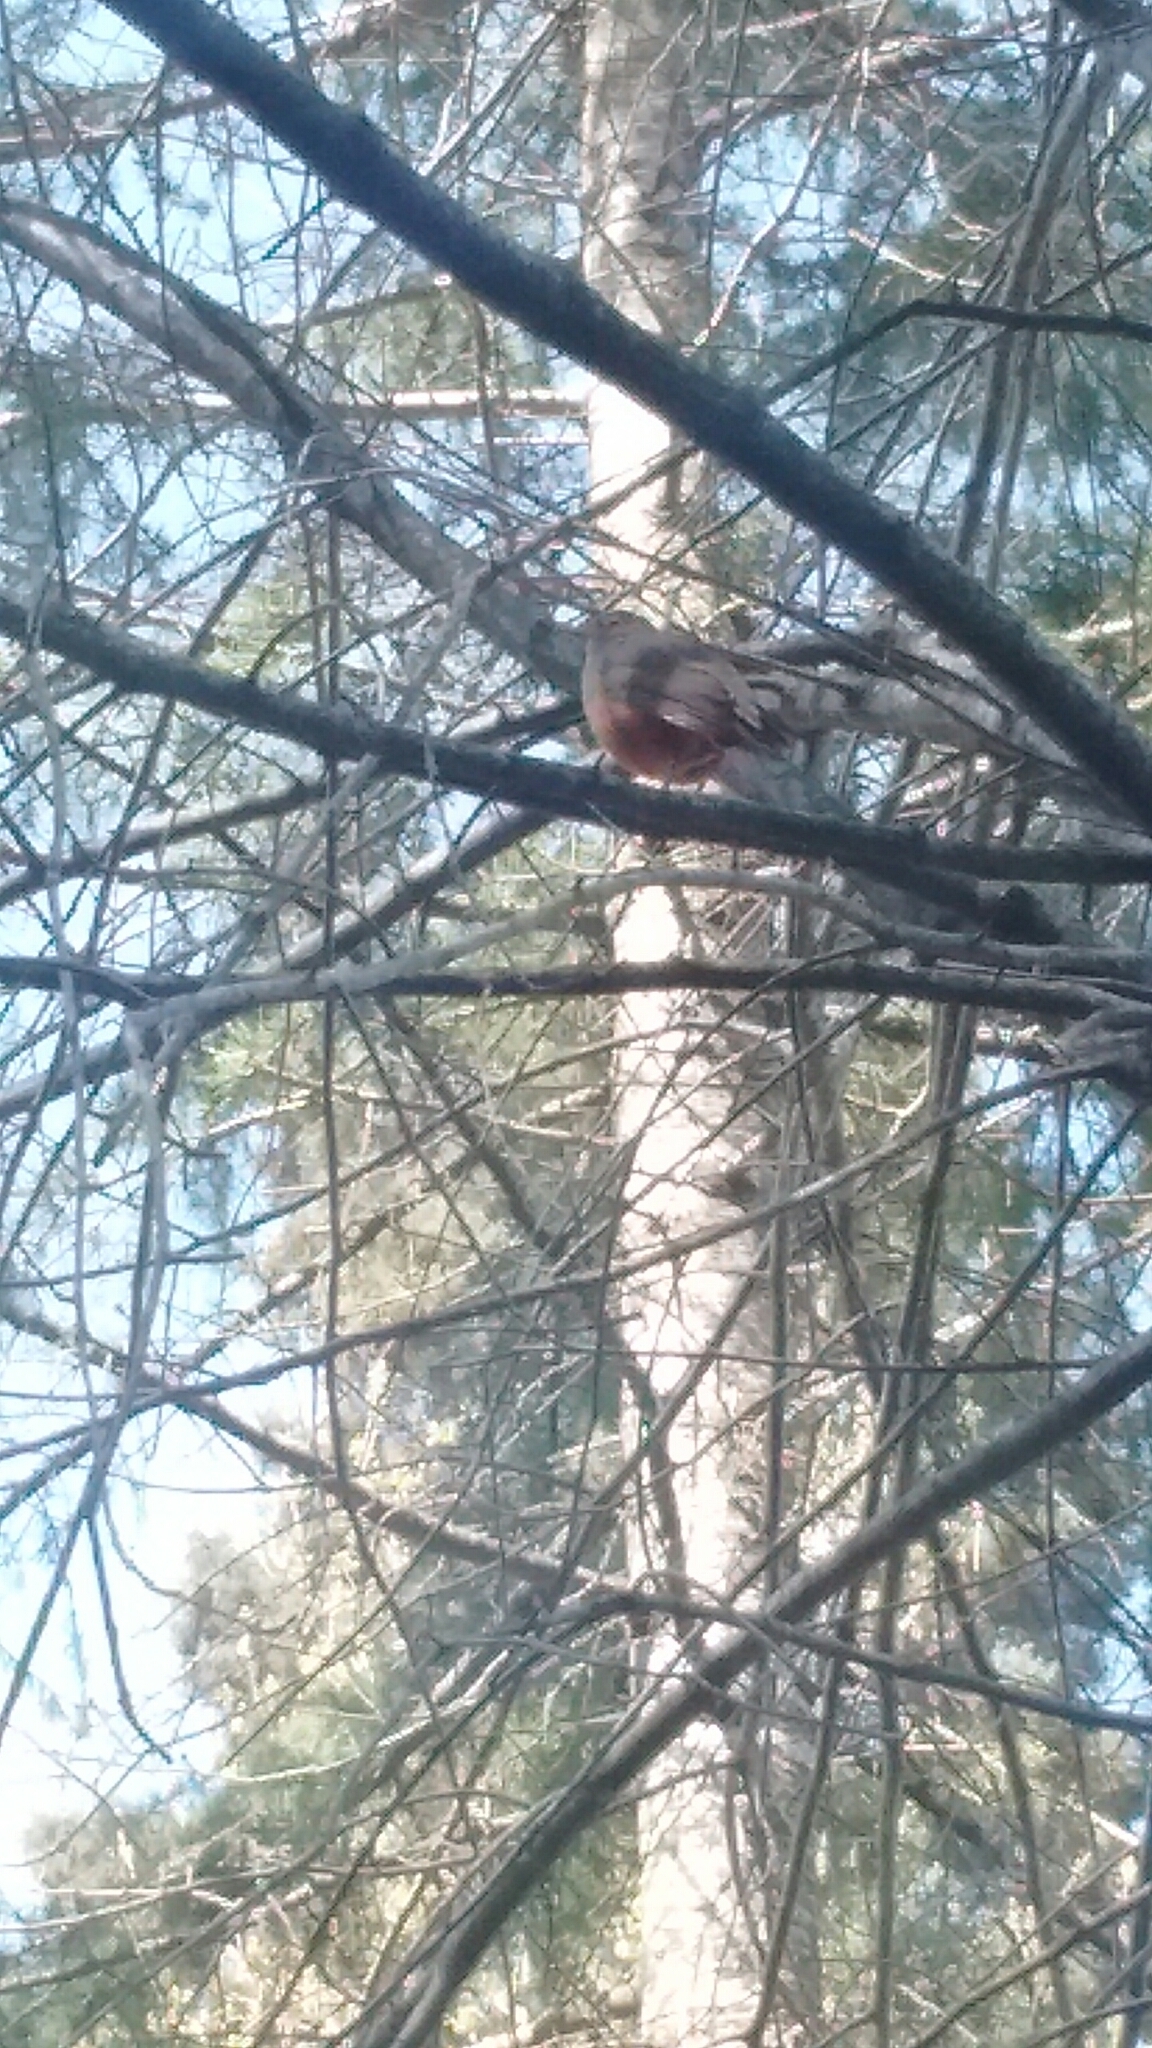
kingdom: Animalia
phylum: Chordata
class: Aves
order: Passeriformes
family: Turdidae
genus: Turdus
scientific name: Turdus rufiventris
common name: Rufous-bellied thrush
